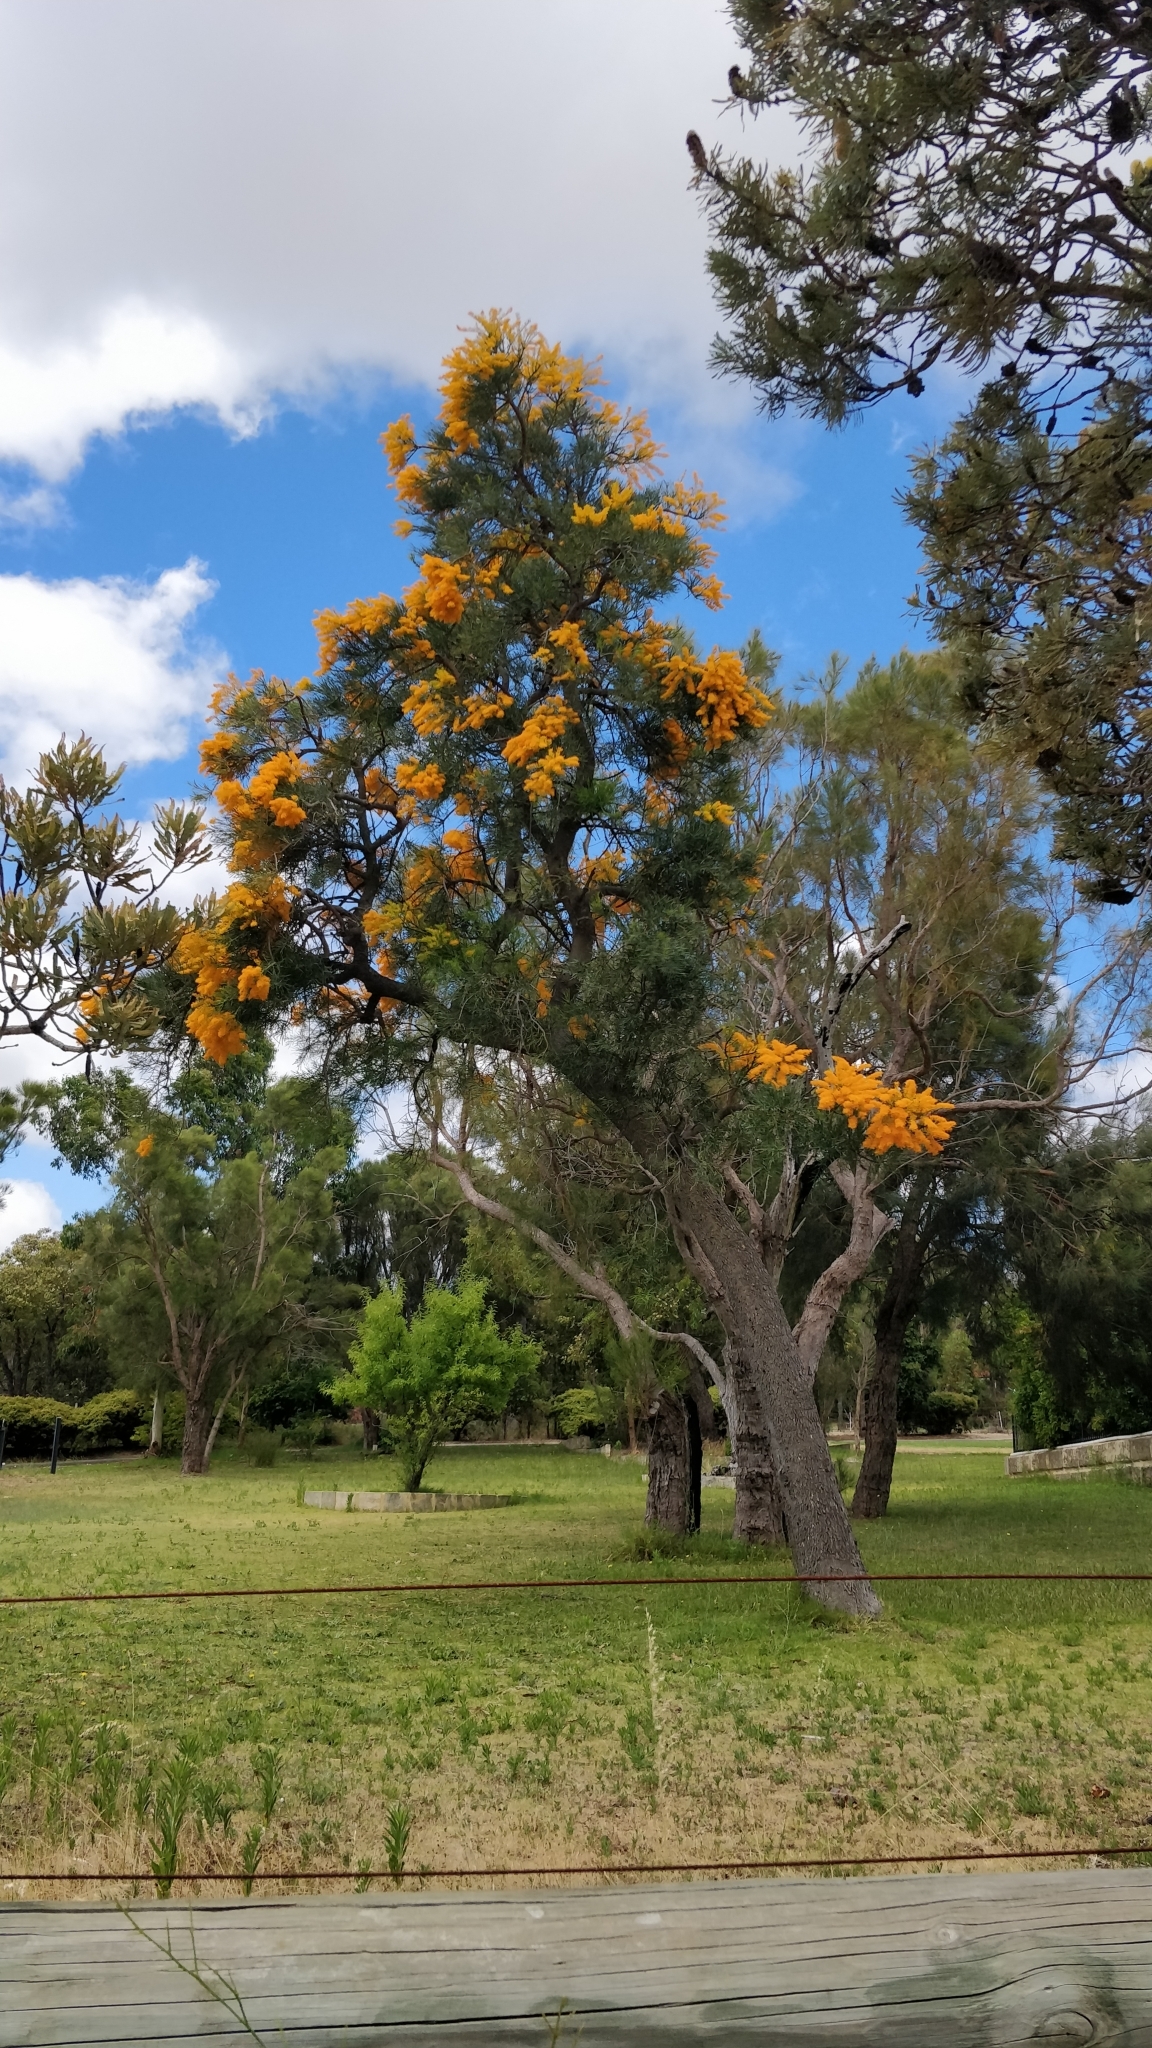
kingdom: Plantae
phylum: Tracheophyta
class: Magnoliopsida
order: Santalales
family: Loranthaceae
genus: Nuytsia
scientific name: Nuytsia floribunda
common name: Western australian christmastree
